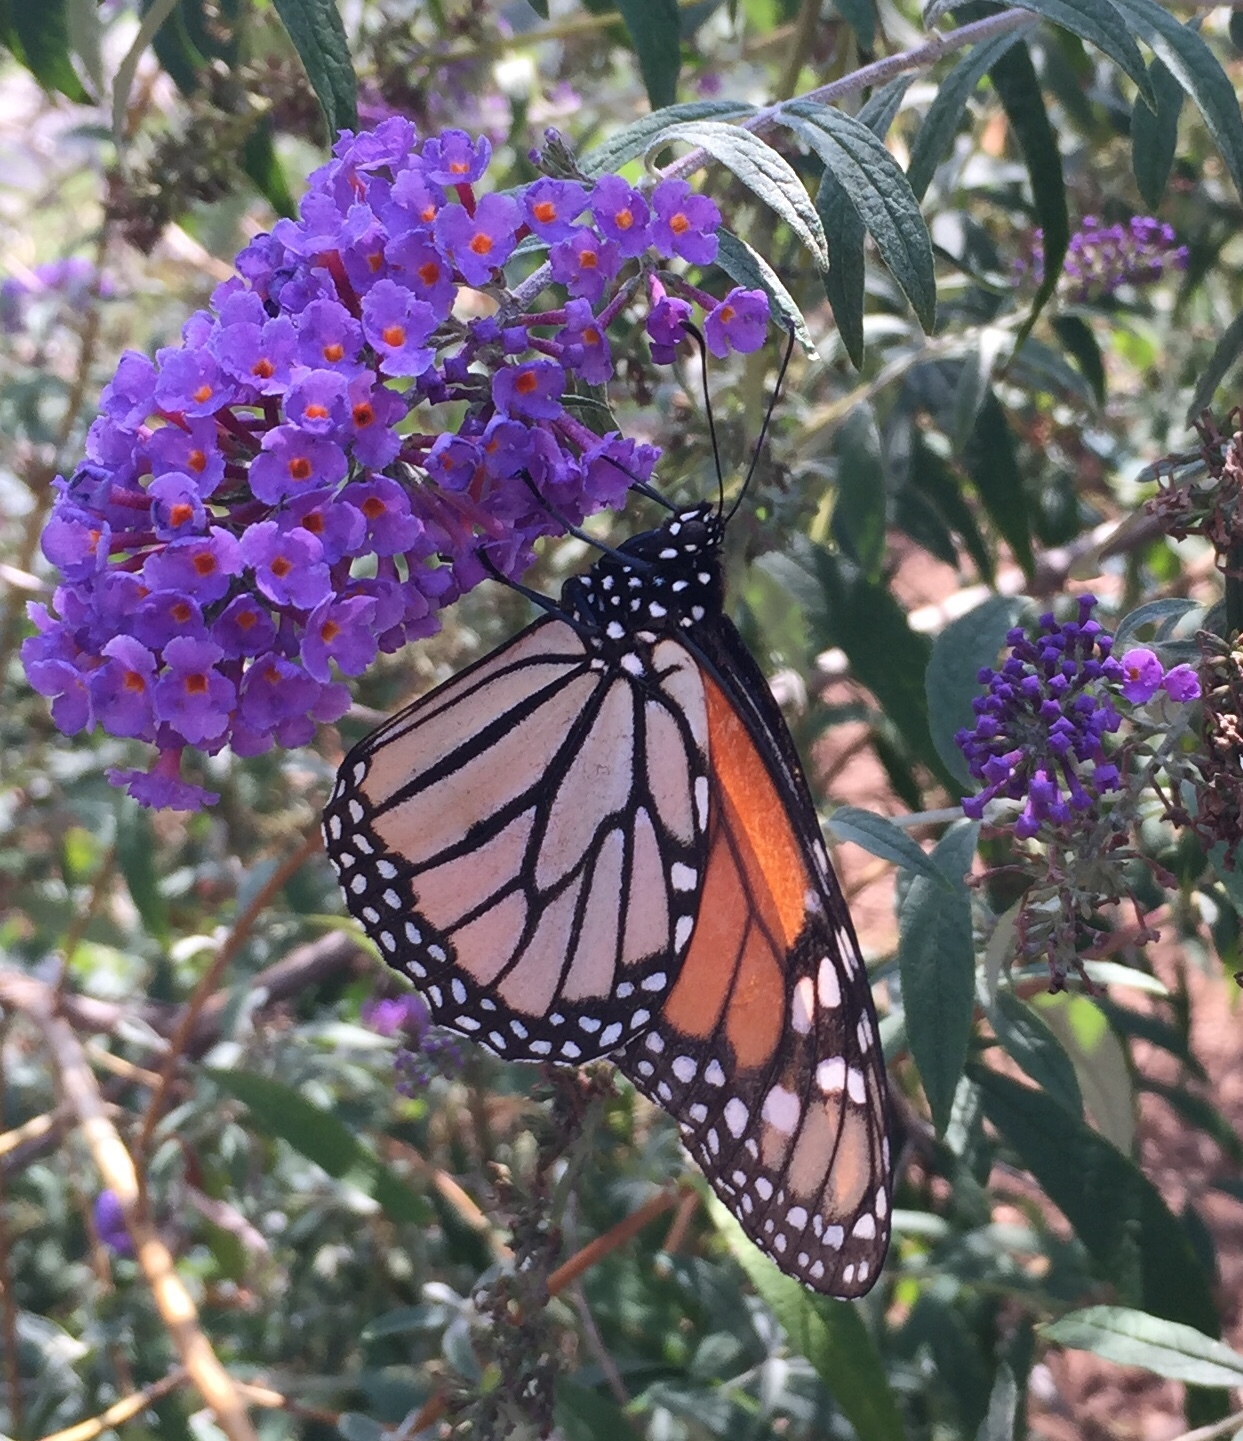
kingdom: Animalia
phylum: Arthropoda
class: Insecta
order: Lepidoptera
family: Nymphalidae
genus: Danaus
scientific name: Danaus plexippus
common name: Monarch
